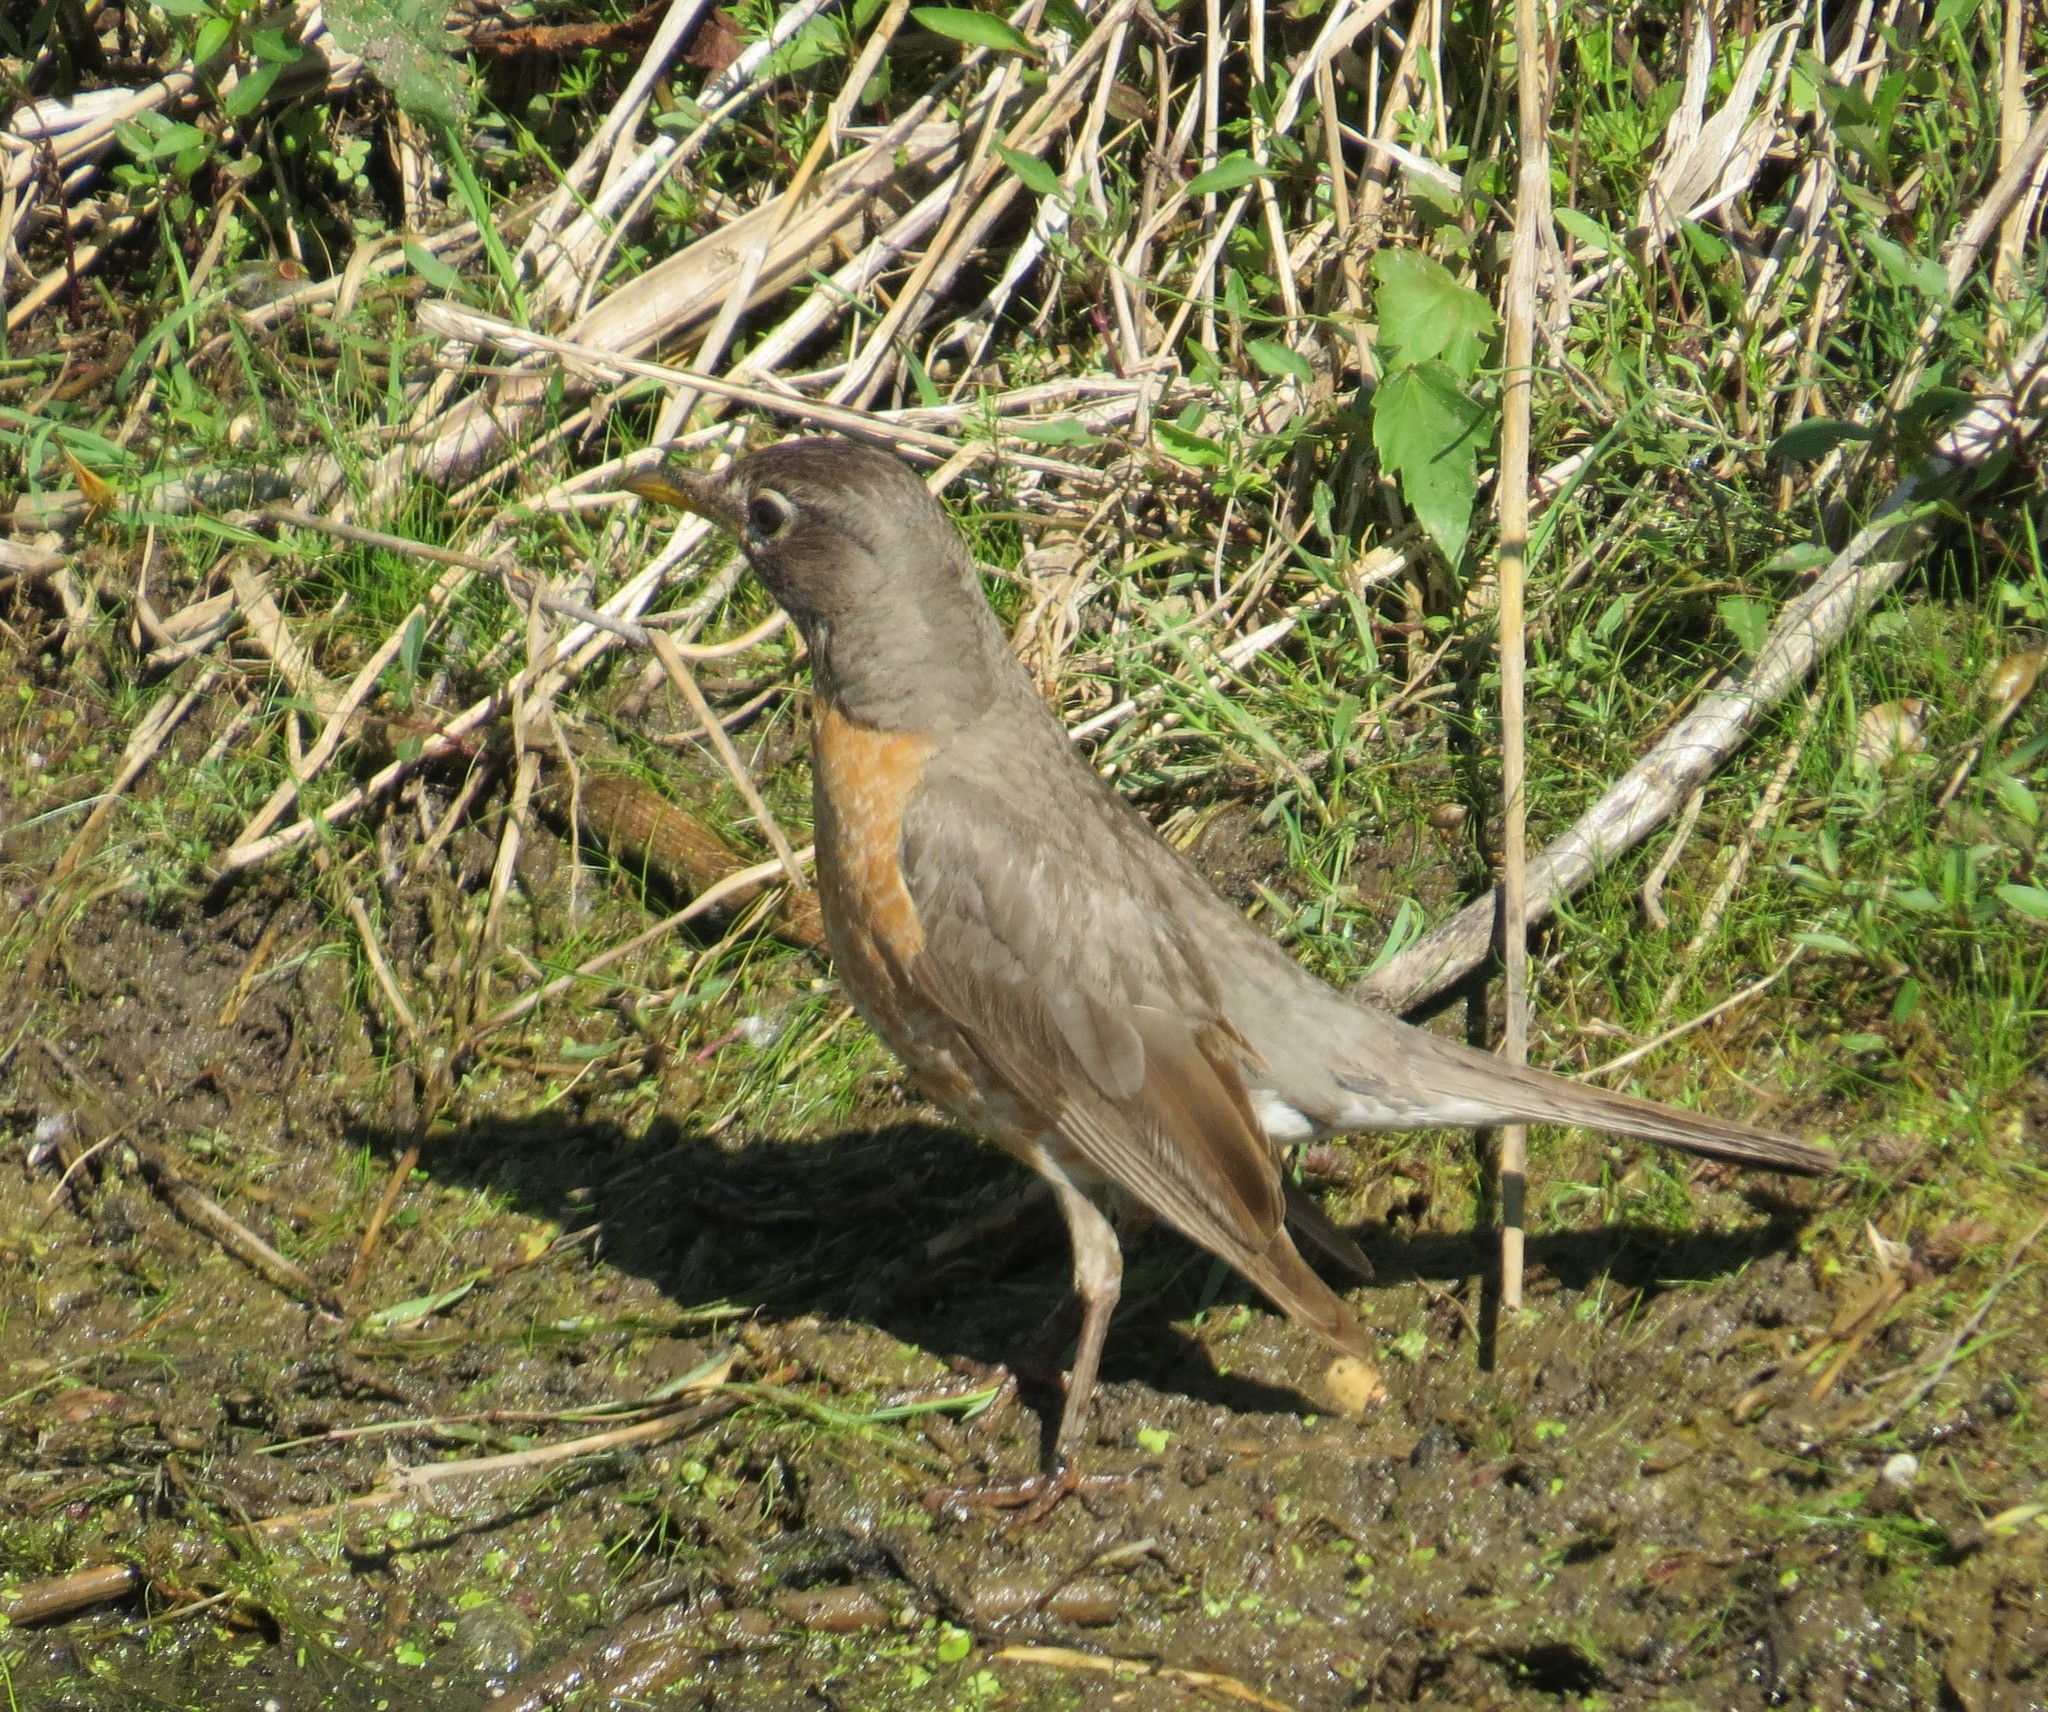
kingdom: Animalia
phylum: Chordata
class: Aves
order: Passeriformes
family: Turdidae
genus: Turdus
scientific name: Turdus migratorius
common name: American robin
